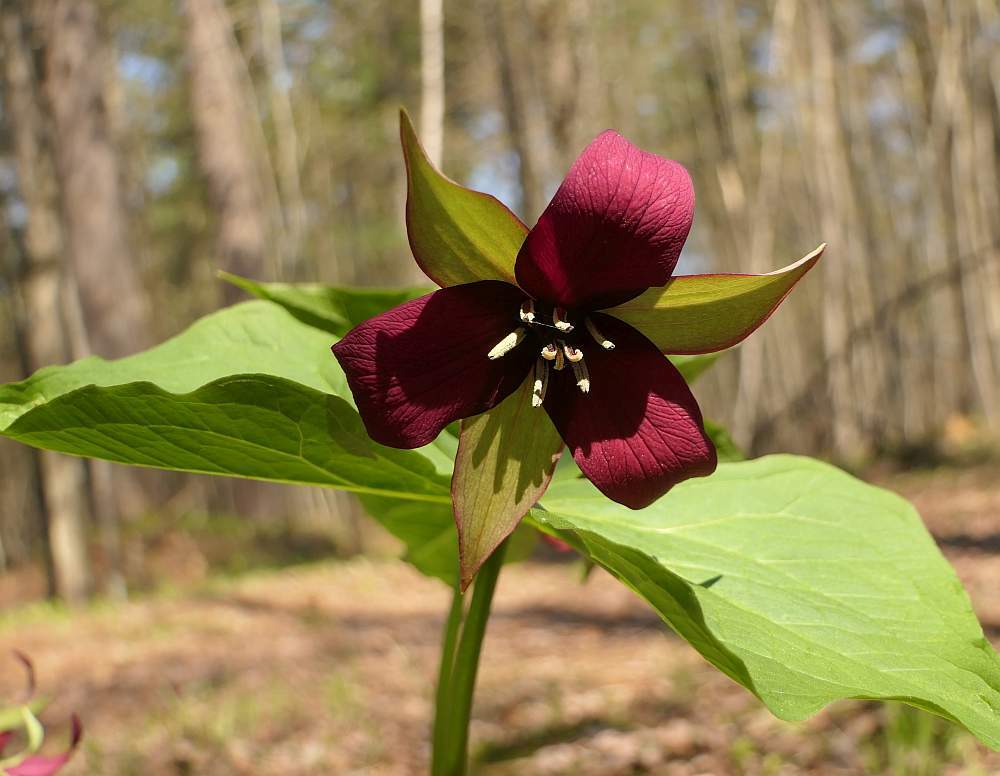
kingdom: Plantae
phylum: Tracheophyta
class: Liliopsida
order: Liliales
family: Melanthiaceae
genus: Trillium
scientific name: Trillium erectum
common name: Purple trillium
